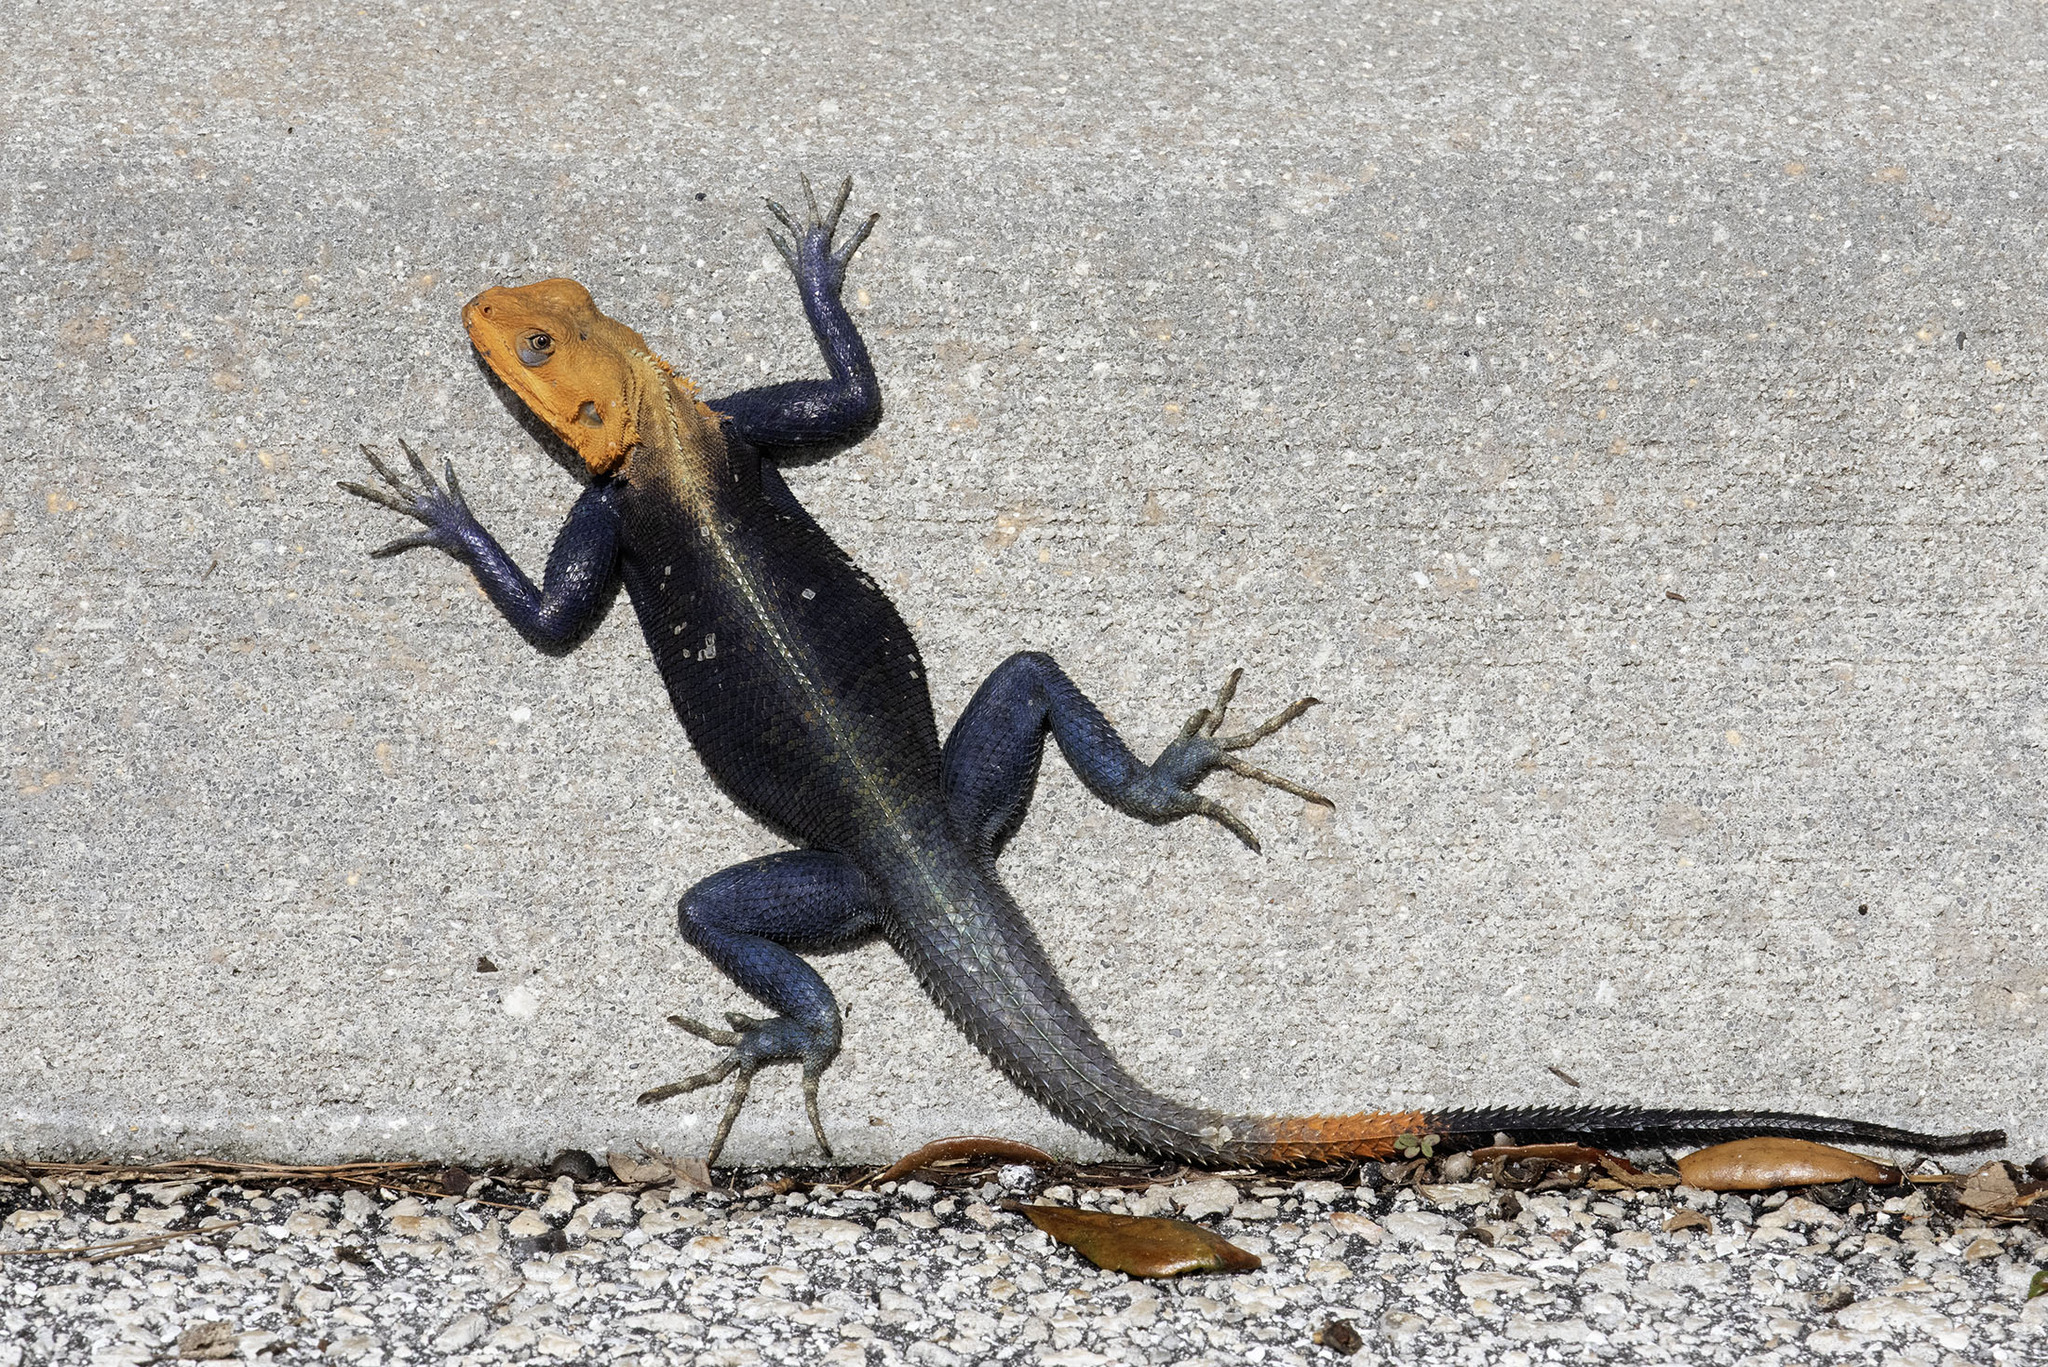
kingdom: Animalia
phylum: Chordata
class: Squamata
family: Agamidae
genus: Agama
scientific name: Agama picticauda
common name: Red-headed agama
